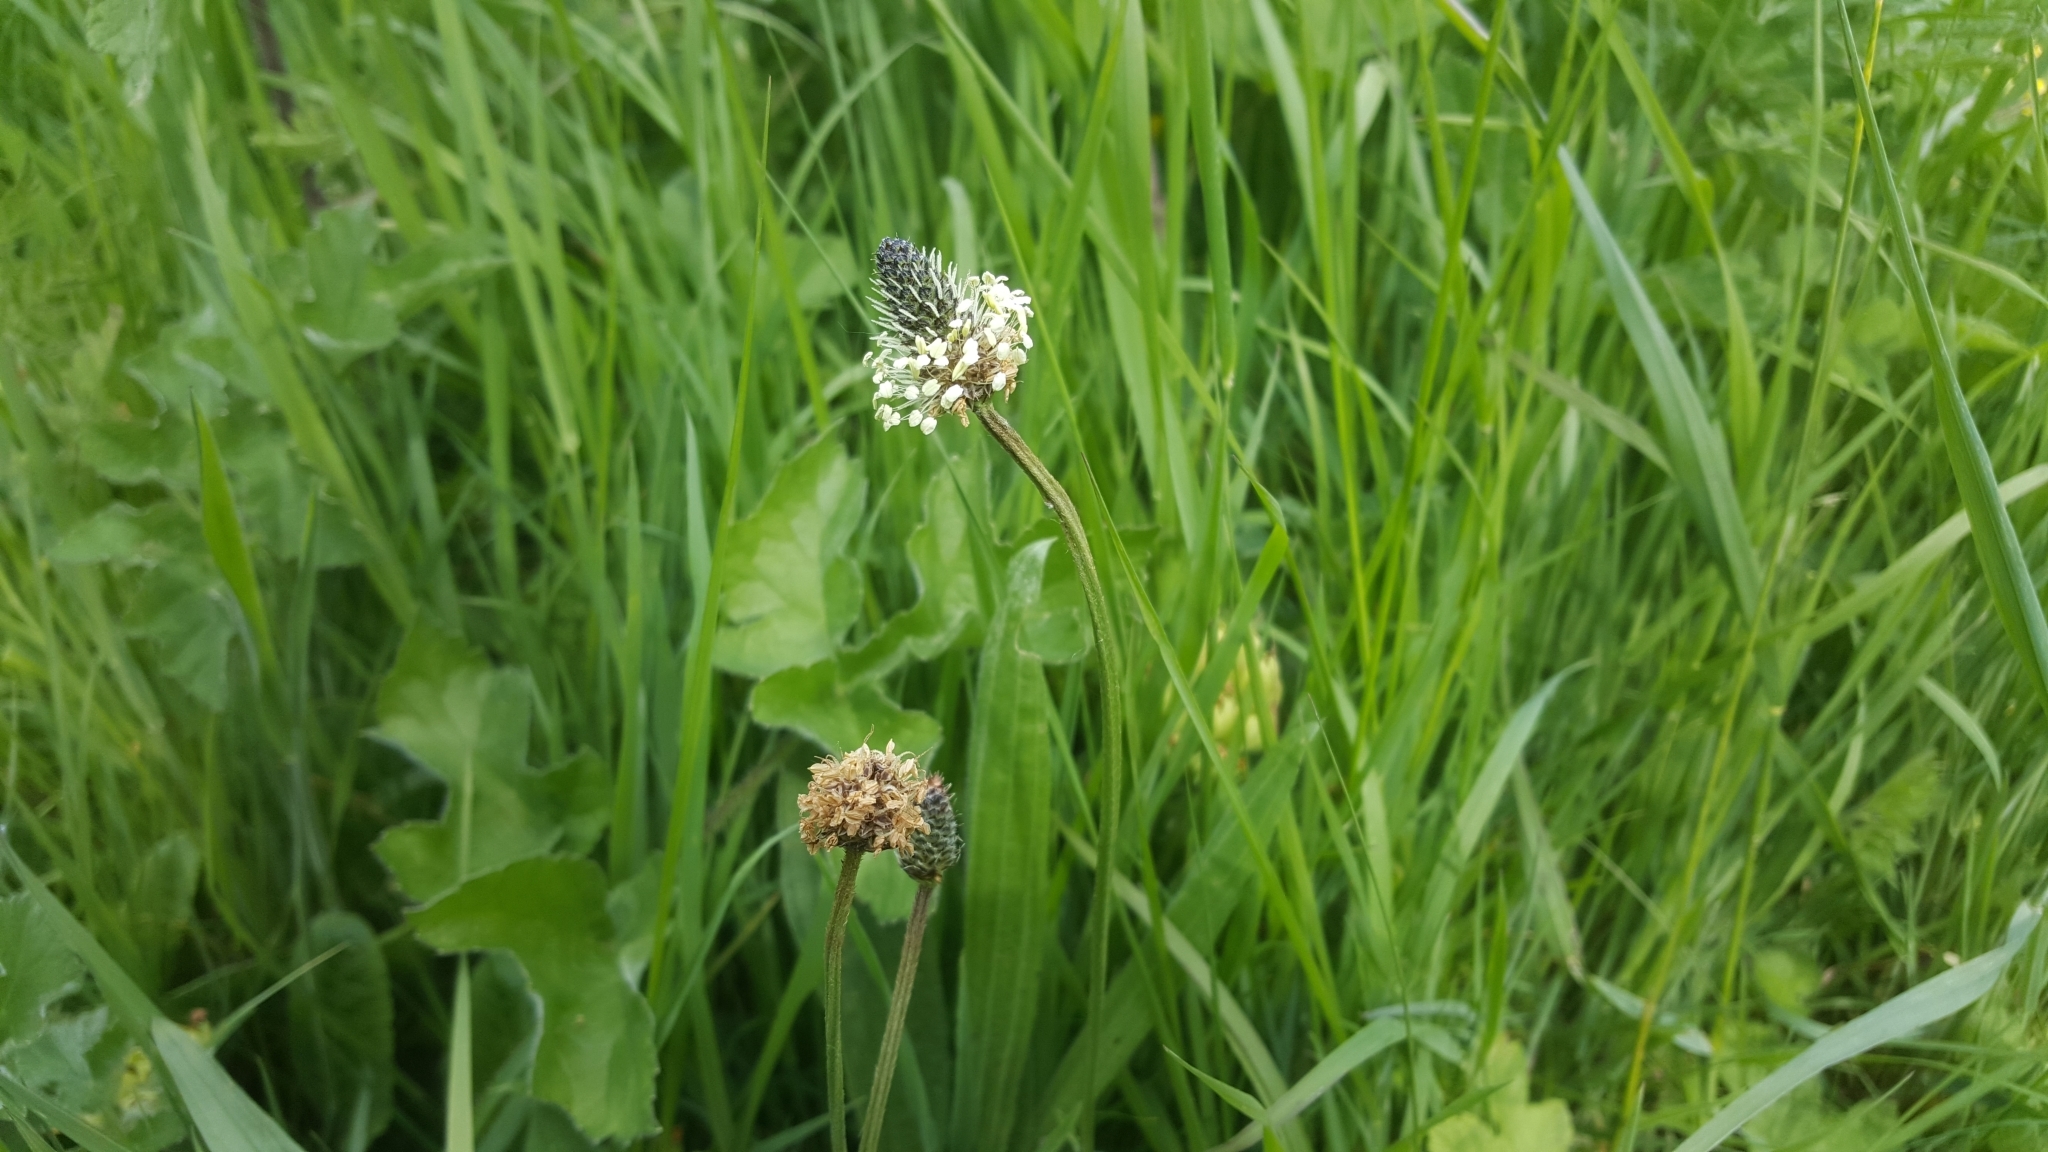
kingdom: Plantae
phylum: Tracheophyta
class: Magnoliopsida
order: Lamiales
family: Plantaginaceae
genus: Plantago
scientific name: Plantago lanceolata
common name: Ribwort plantain
